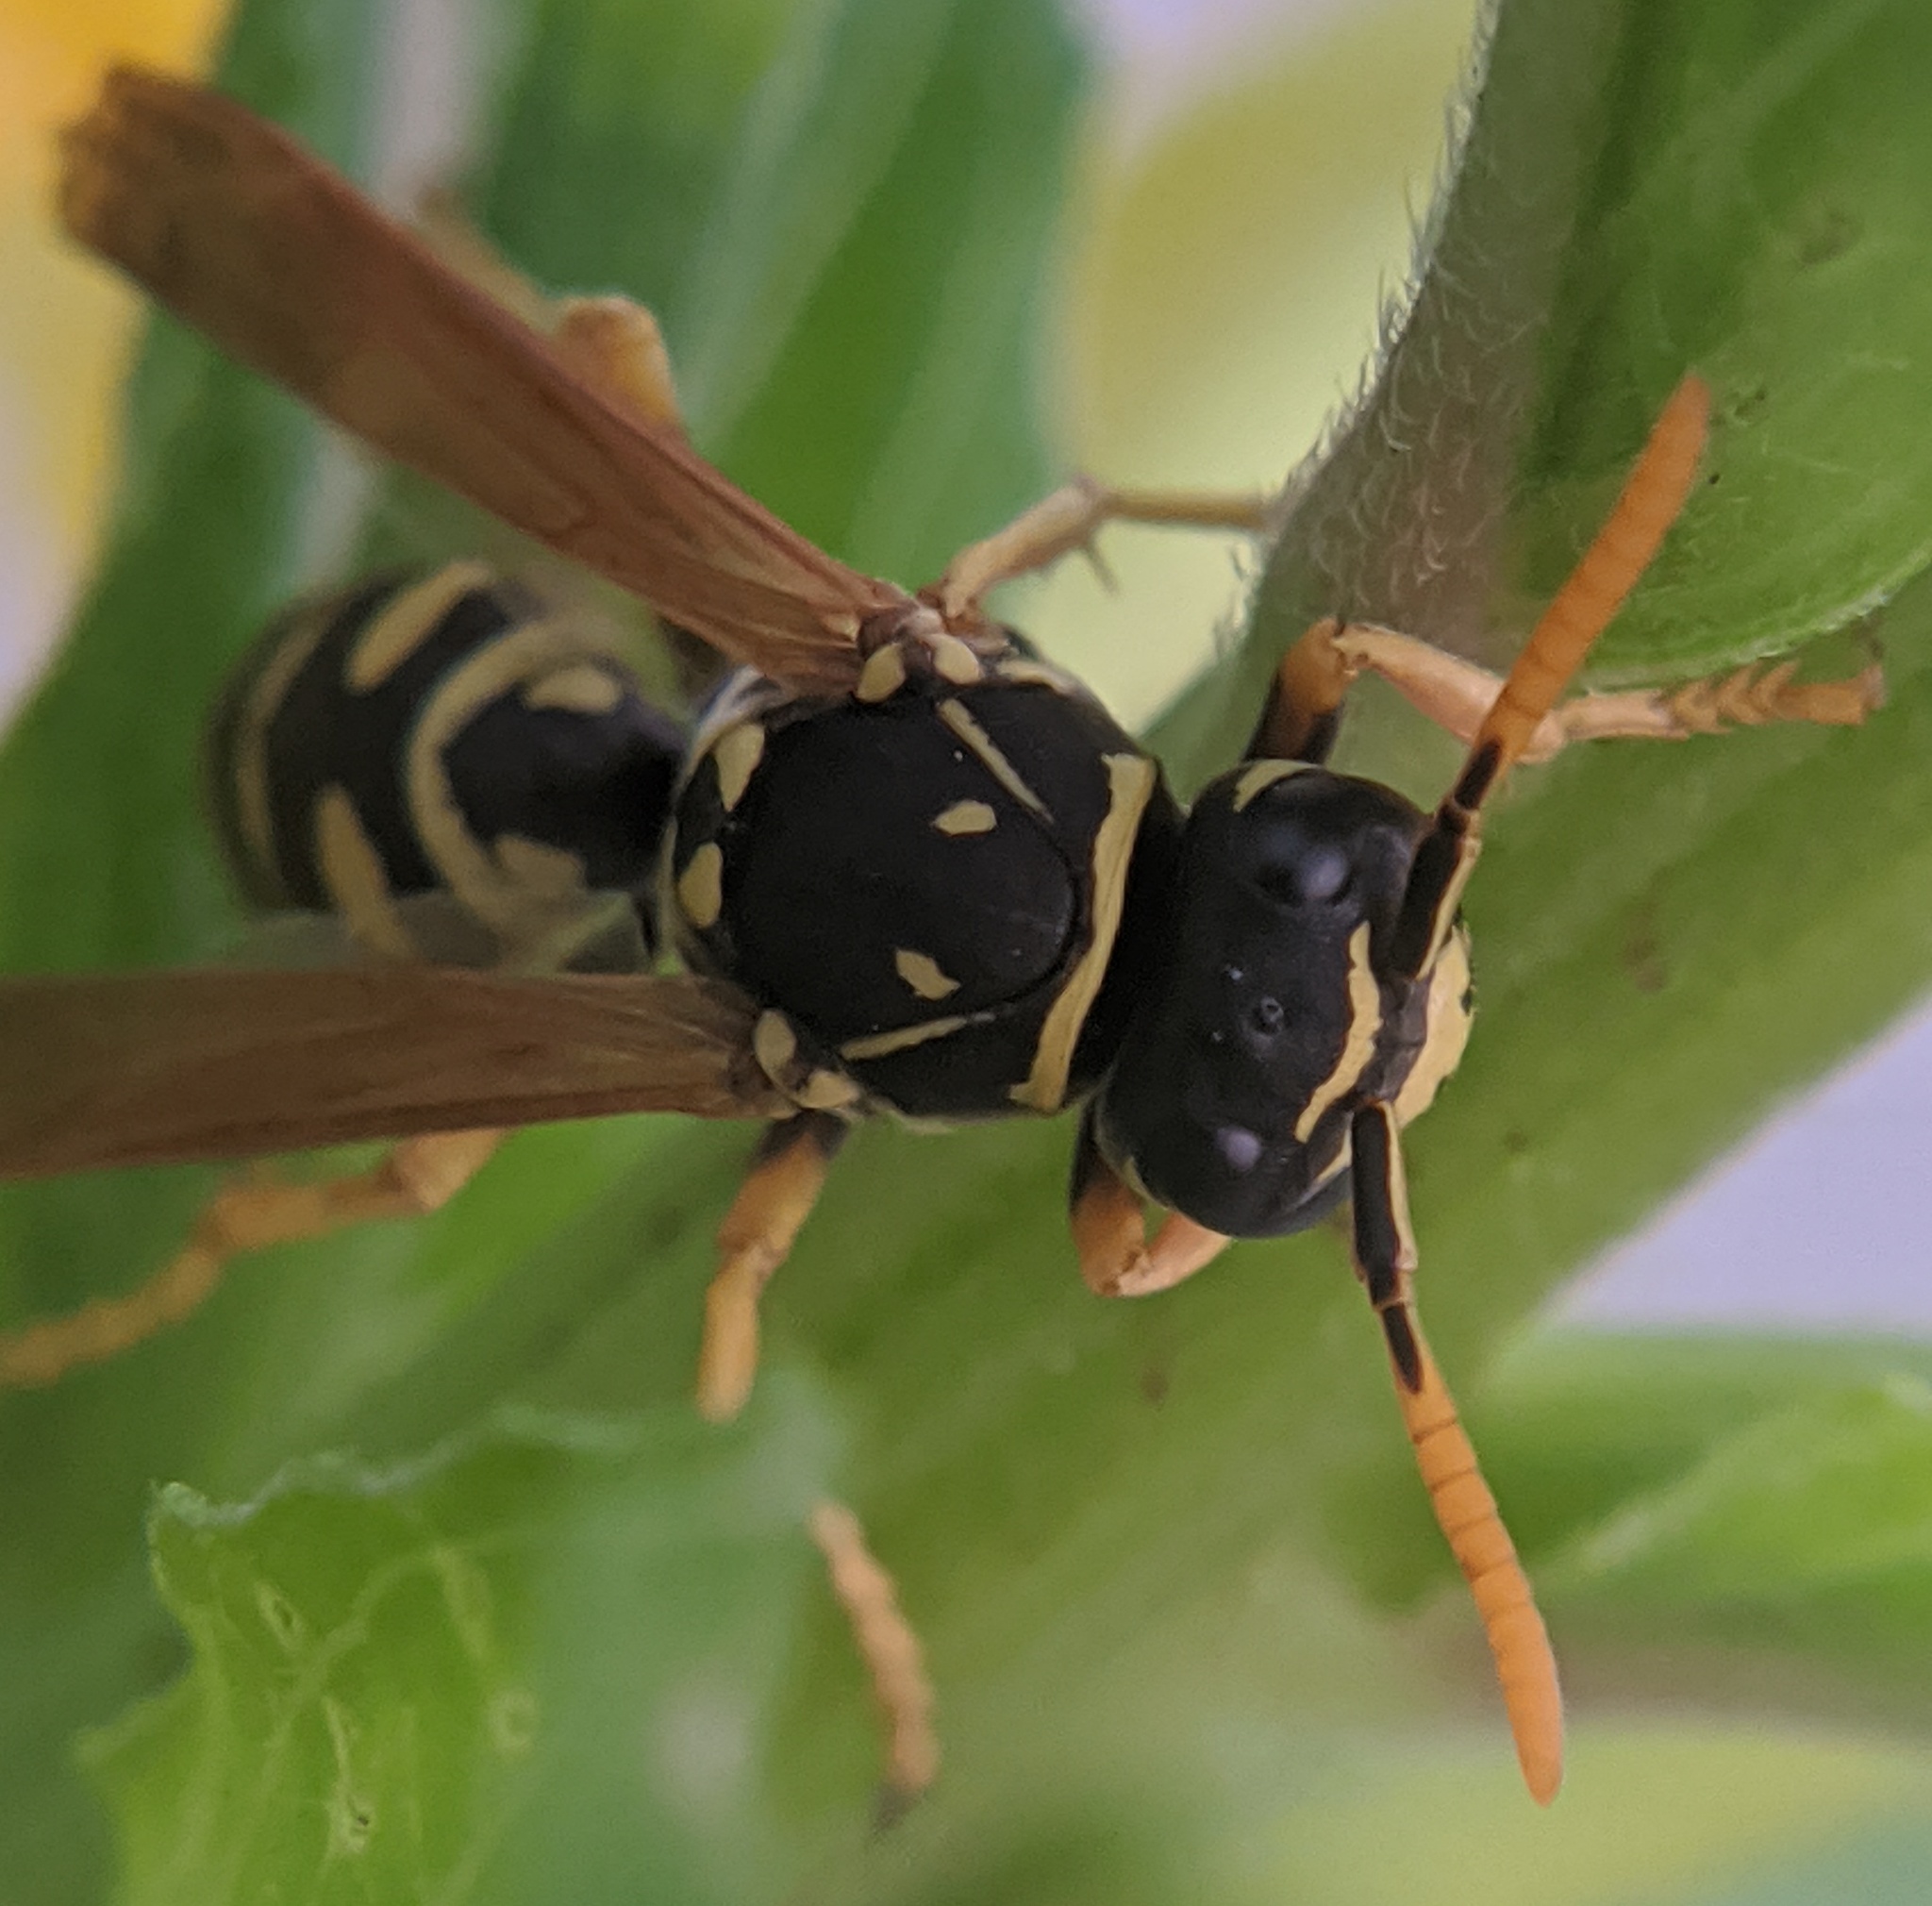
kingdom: Animalia
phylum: Arthropoda
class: Insecta
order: Hymenoptera
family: Eumenidae
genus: Polistes
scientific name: Polistes dominula
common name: Paper wasp
